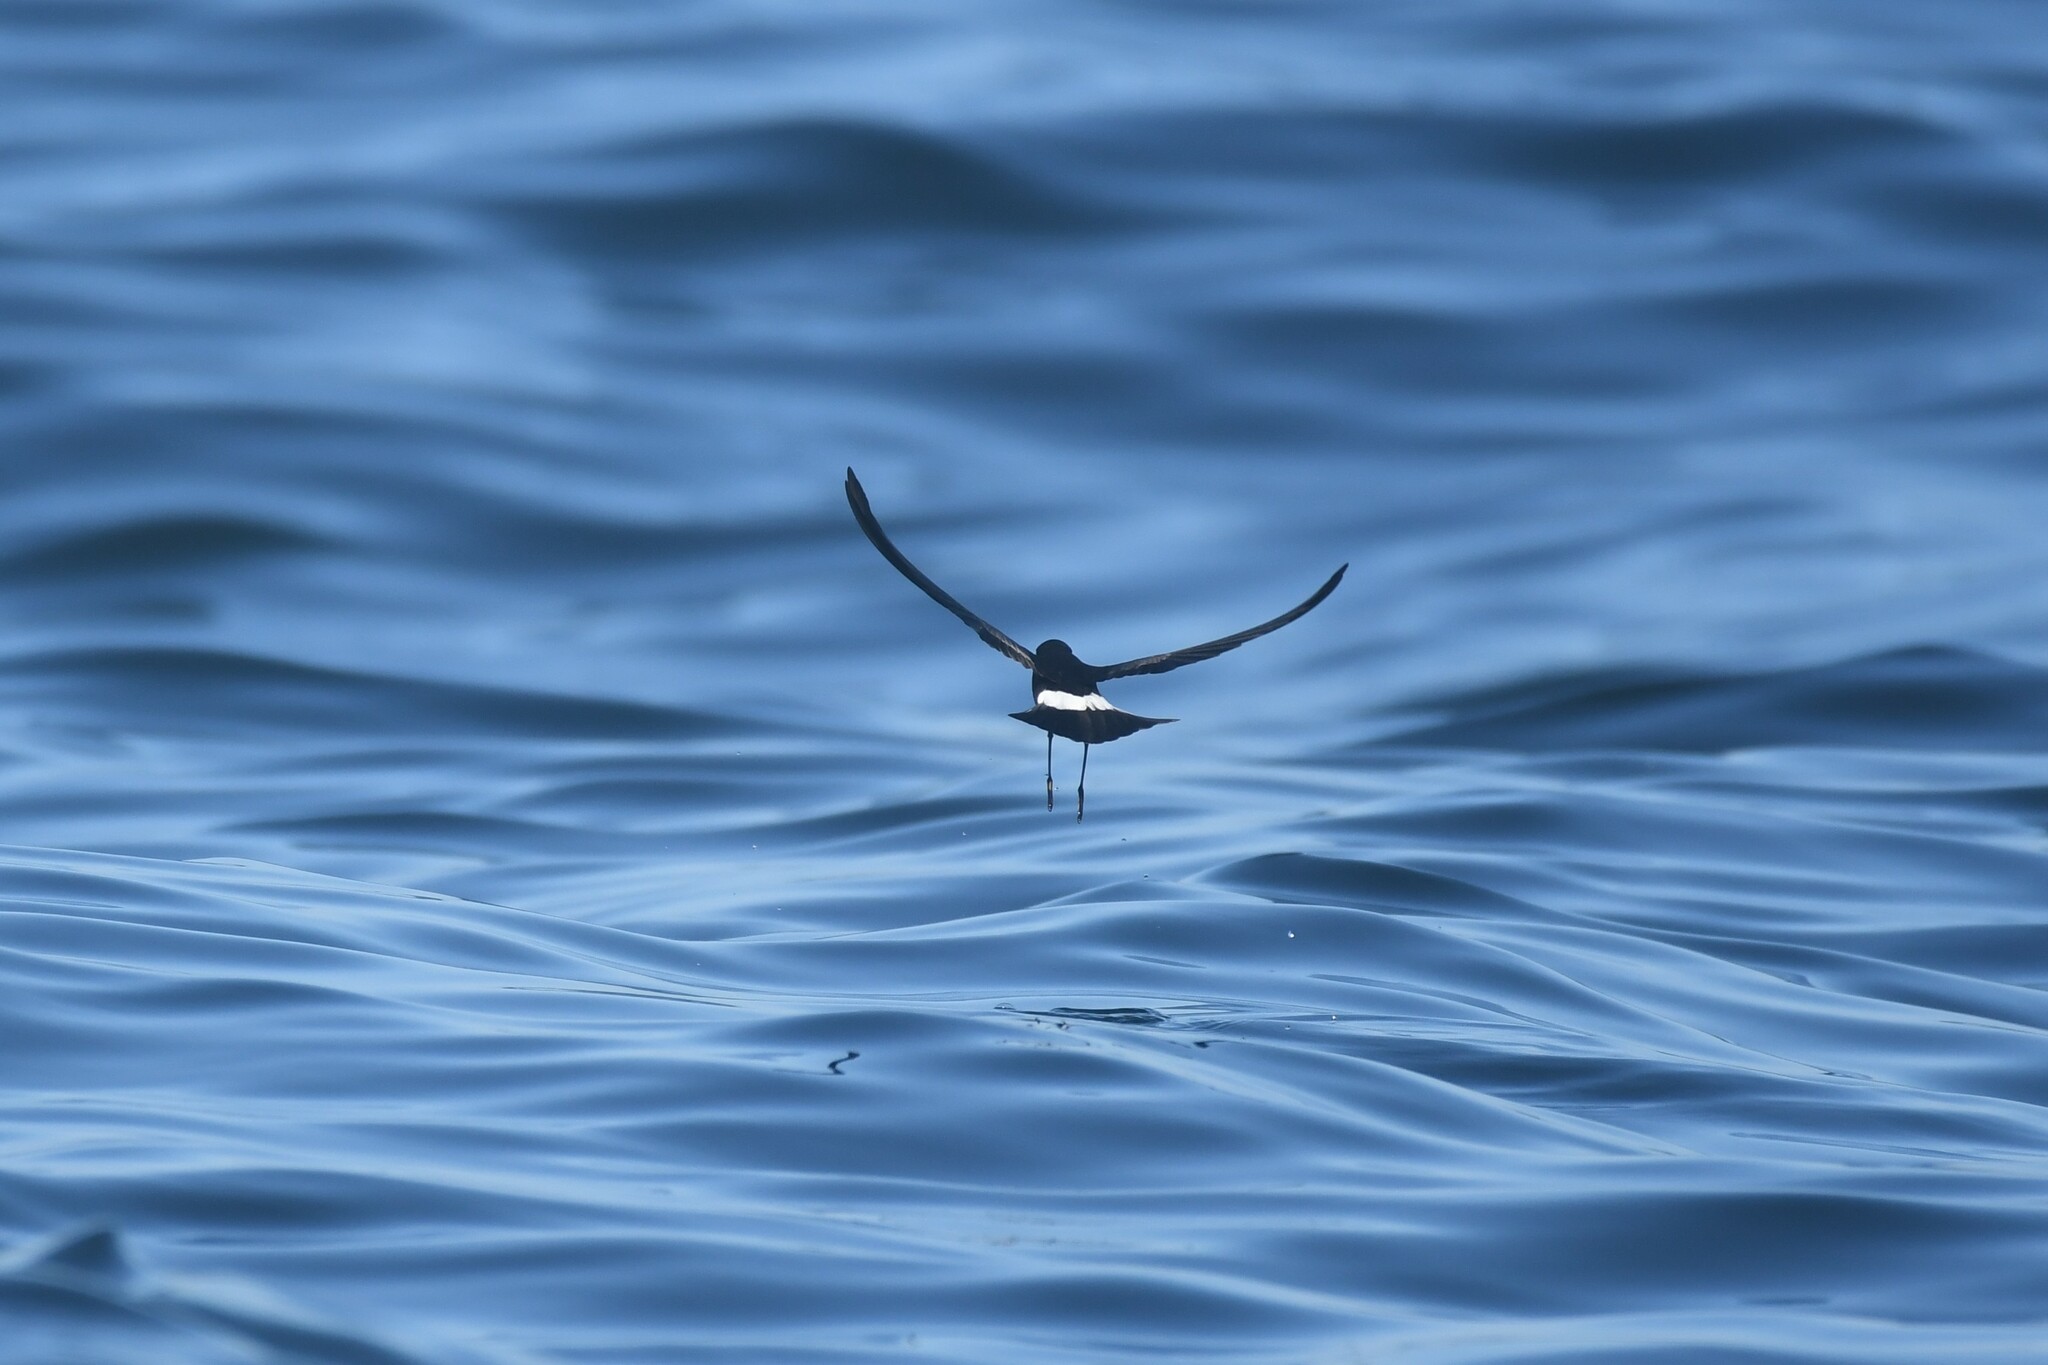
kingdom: Animalia
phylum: Chordata
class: Aves
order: Procellariiformes
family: Hydrobatidae
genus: Oceanites
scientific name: Oceanites oceanicus
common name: Wilson's storm petrel
